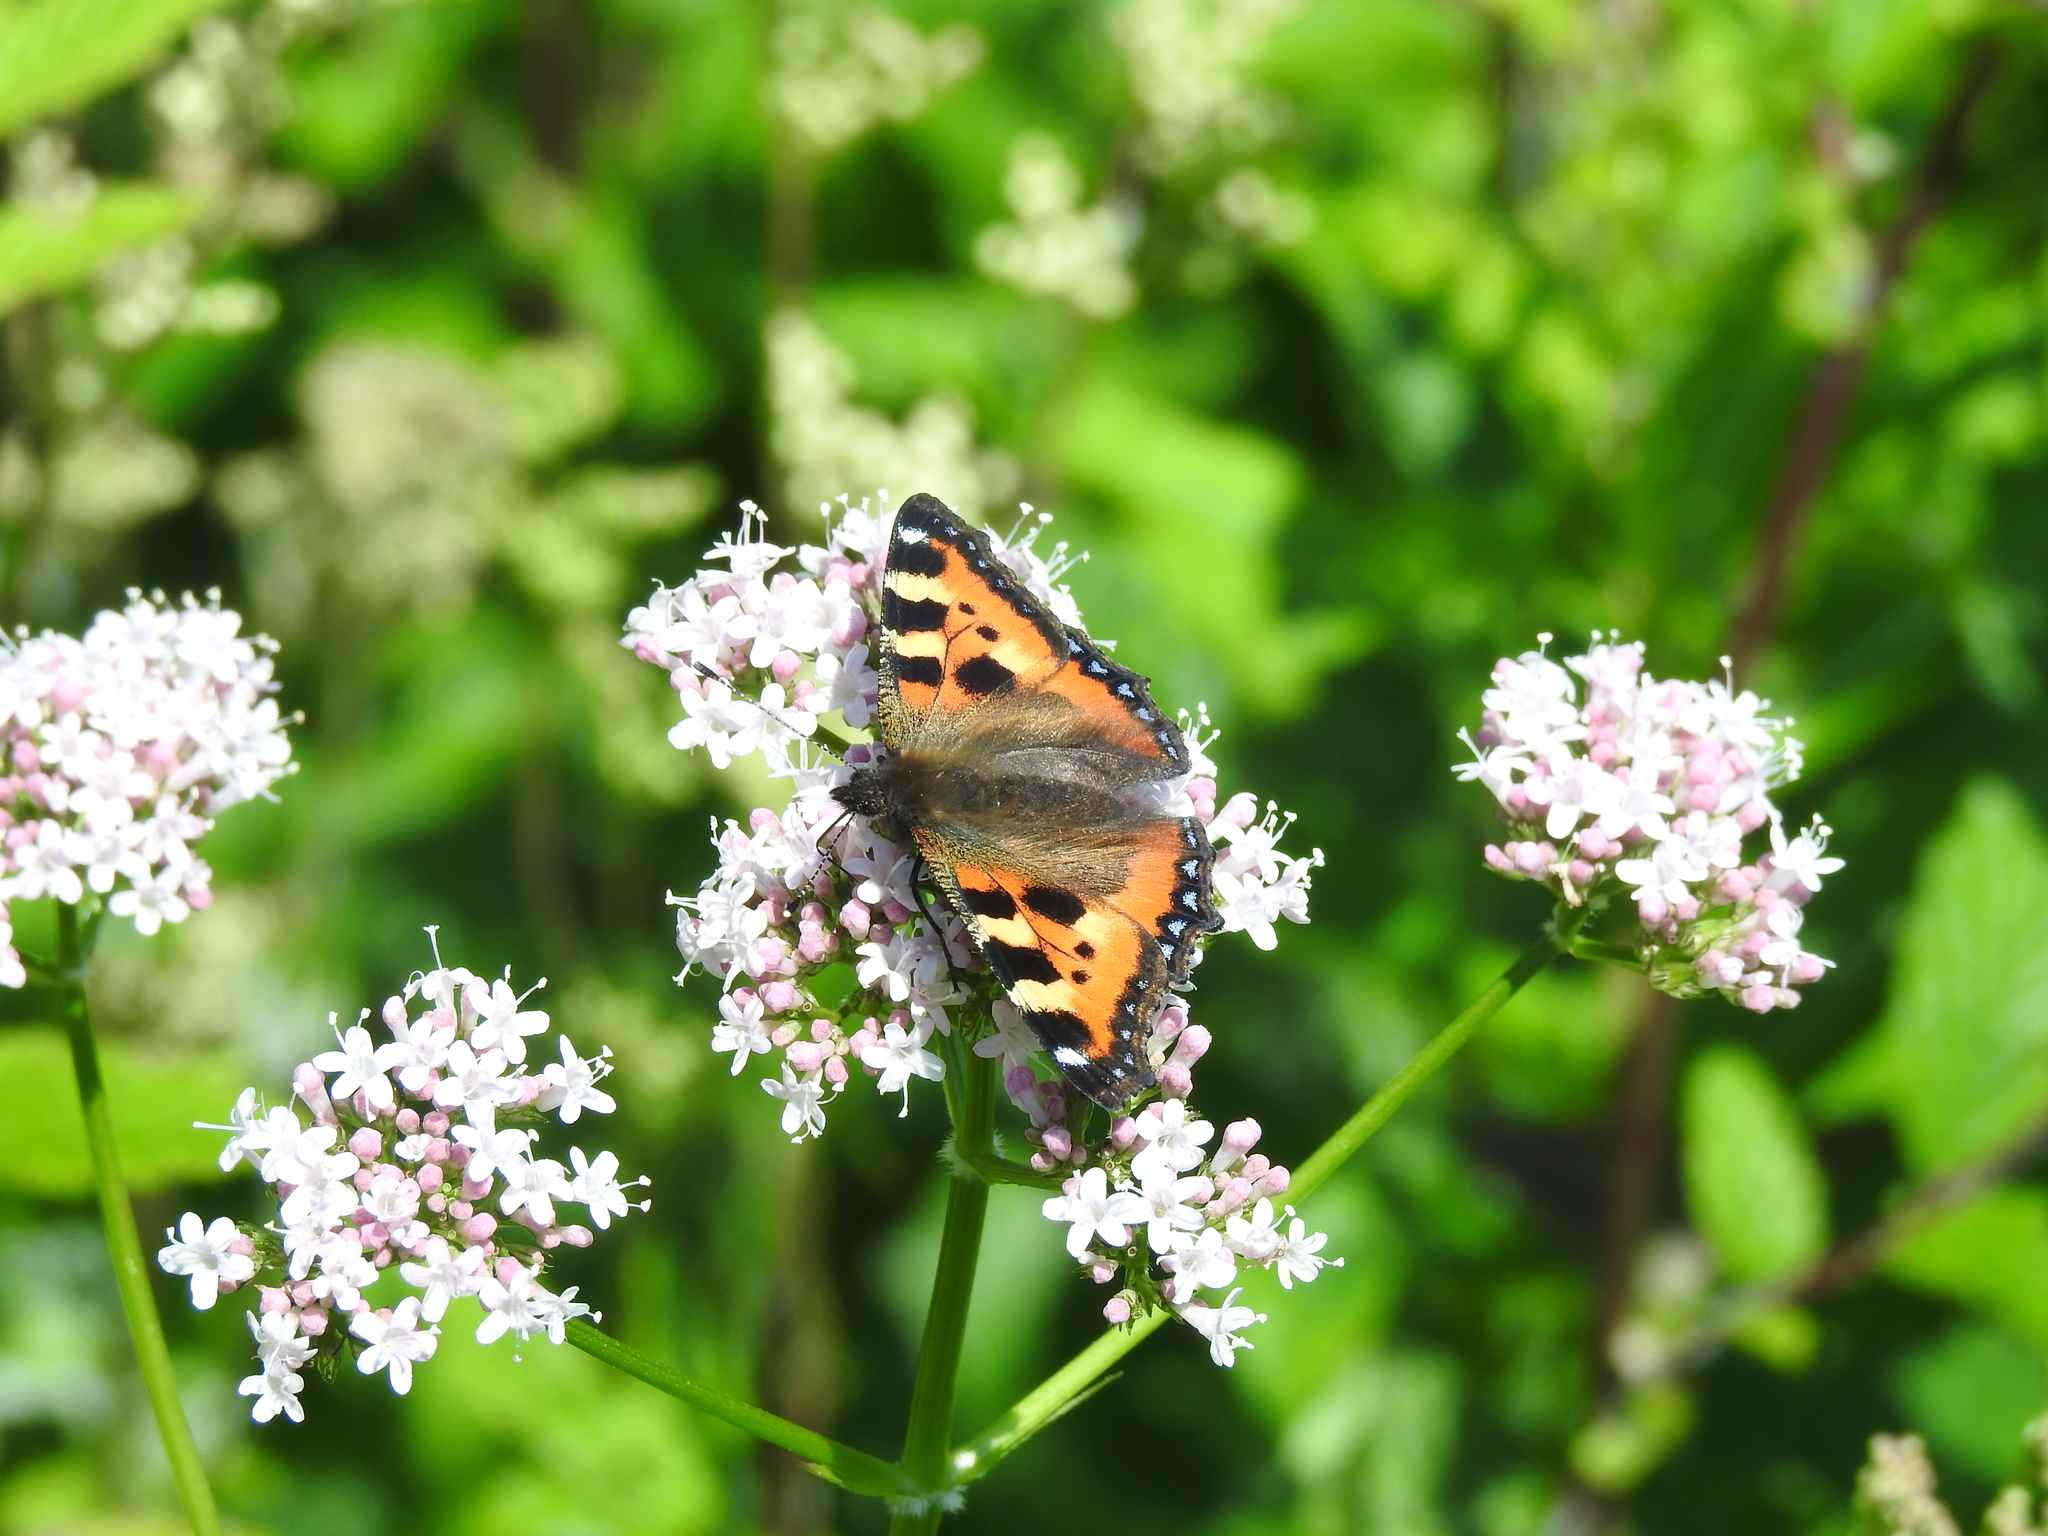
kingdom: Animalia
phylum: Arthropoda
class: Insecta
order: Lepidoptera
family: Nymphalidae
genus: Aglais
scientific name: Aglais urticae
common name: Small tortoiseshell
